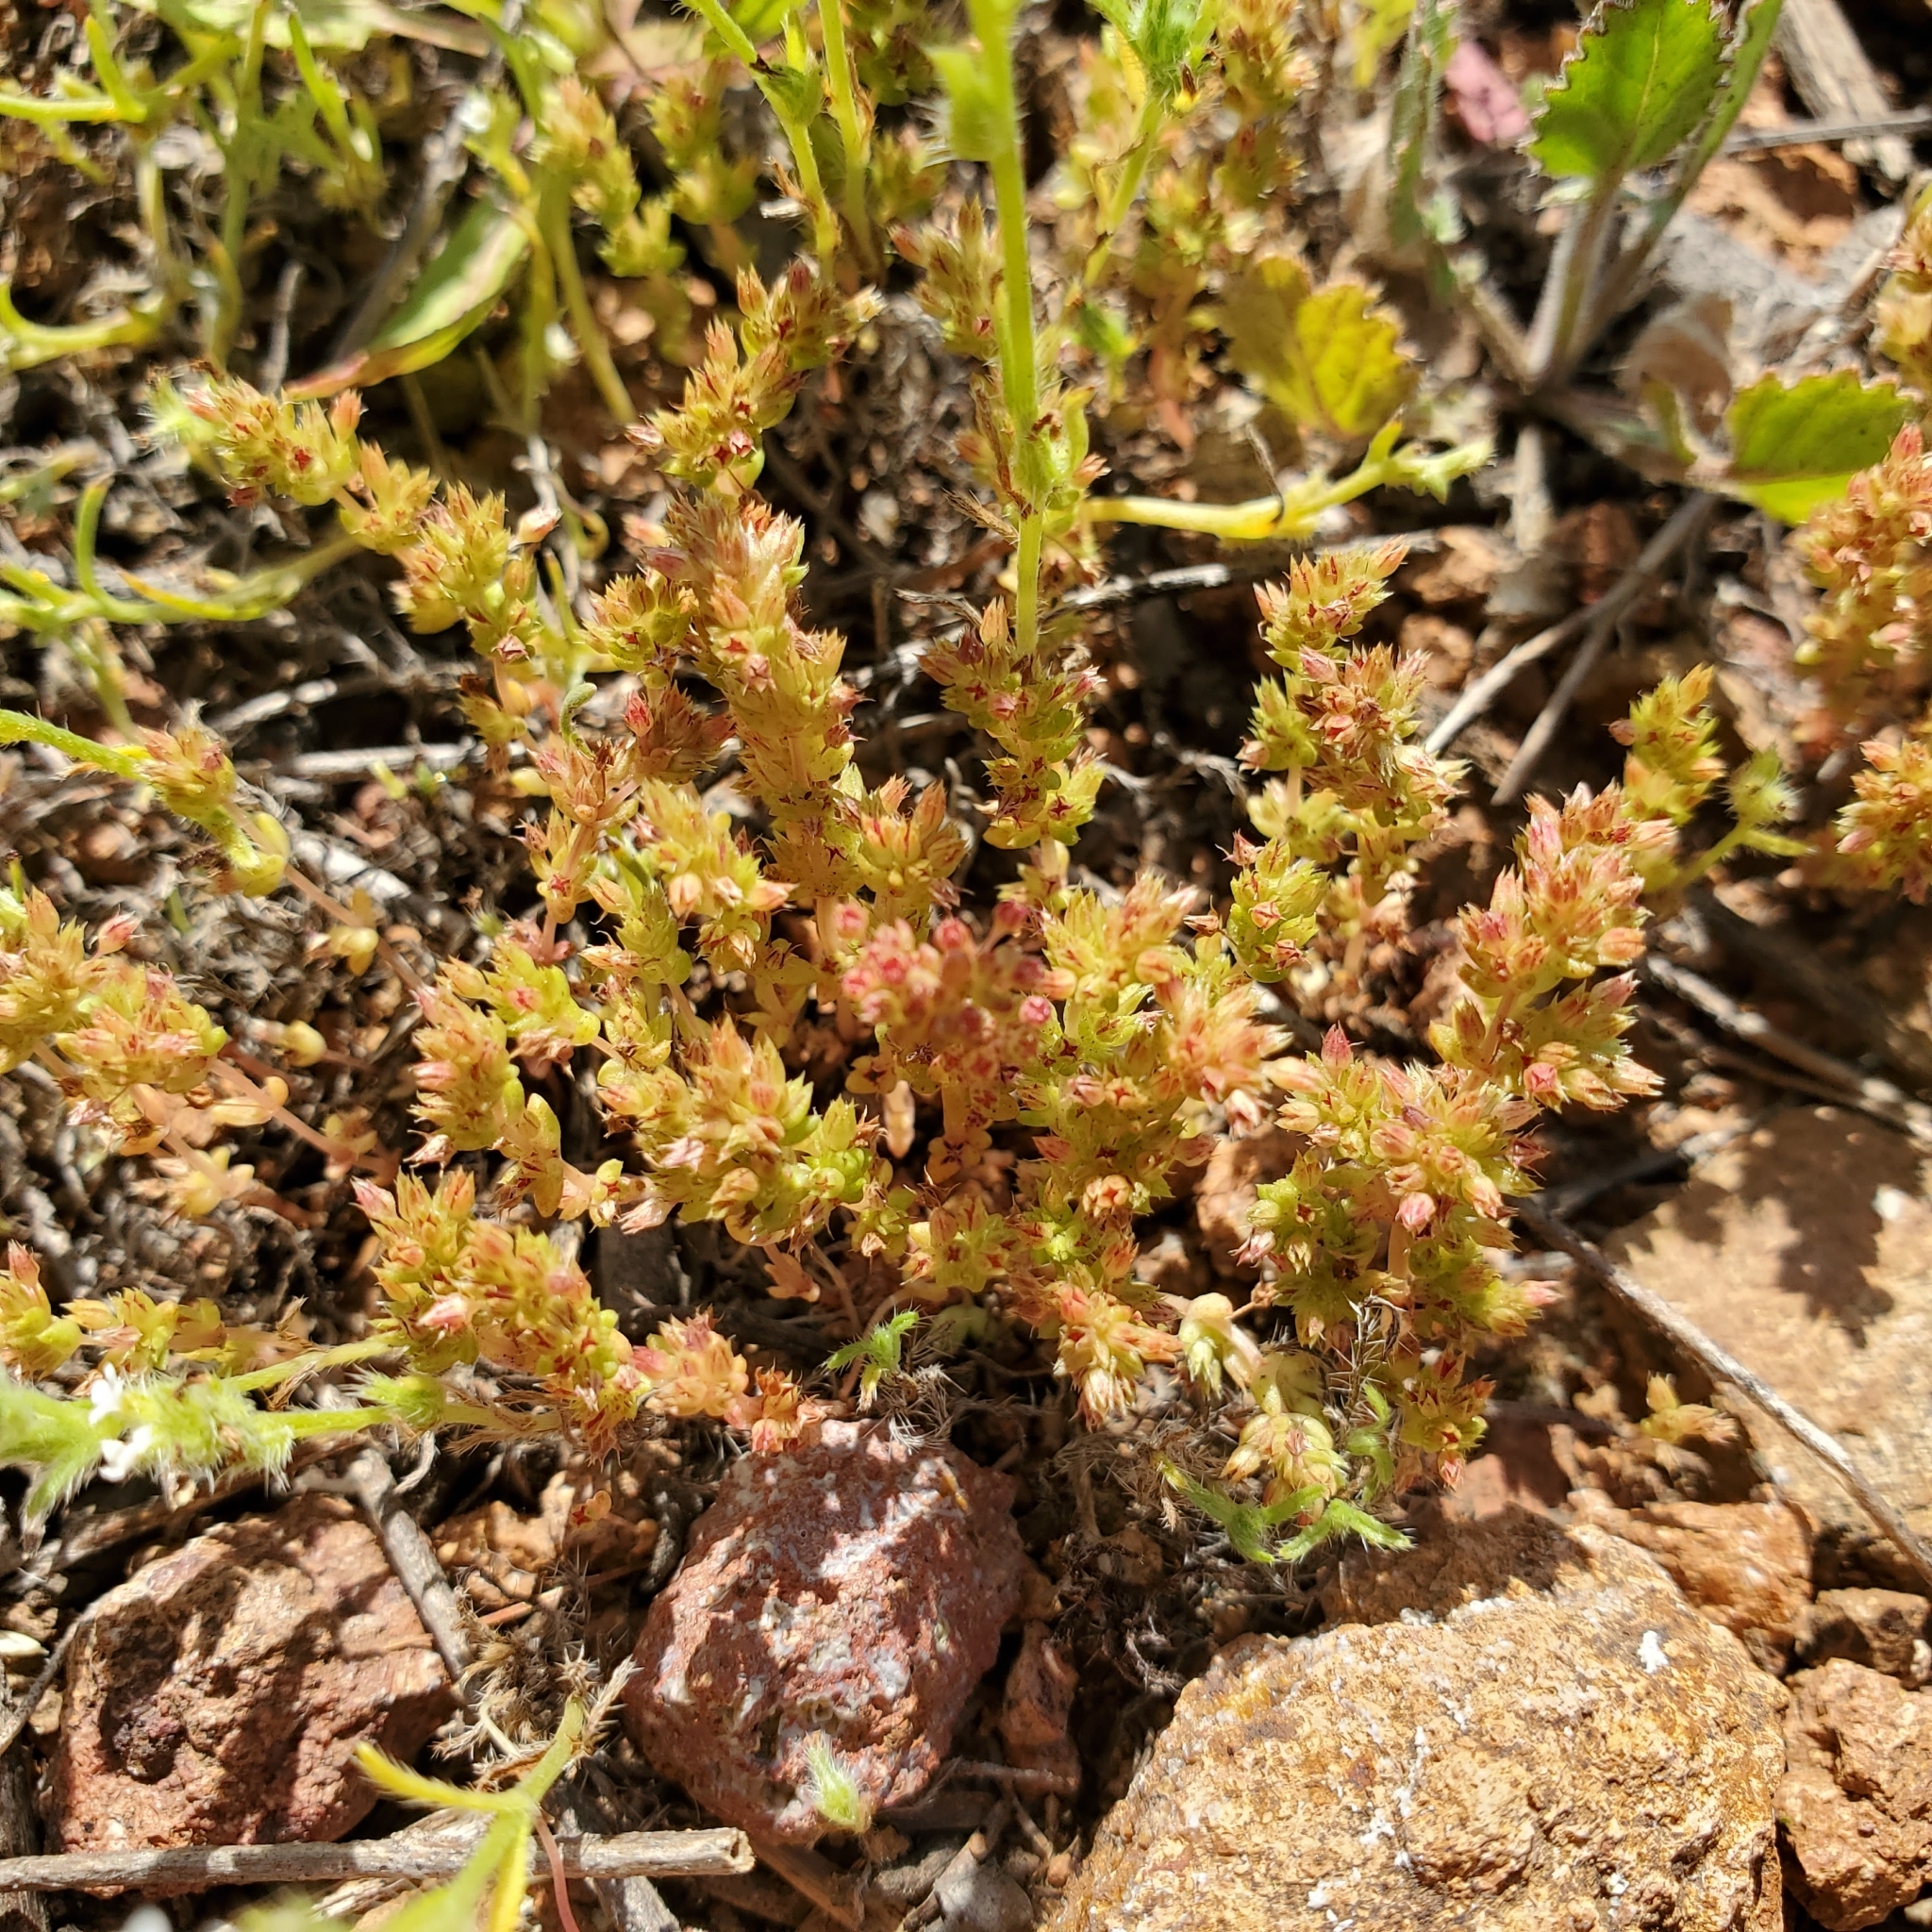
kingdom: Plantae
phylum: Tracheophyta
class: Magnoliopsida
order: Saxifragales
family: Crassulaceae
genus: Crassula
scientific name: Crassula connata
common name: Erect pygmyweed
